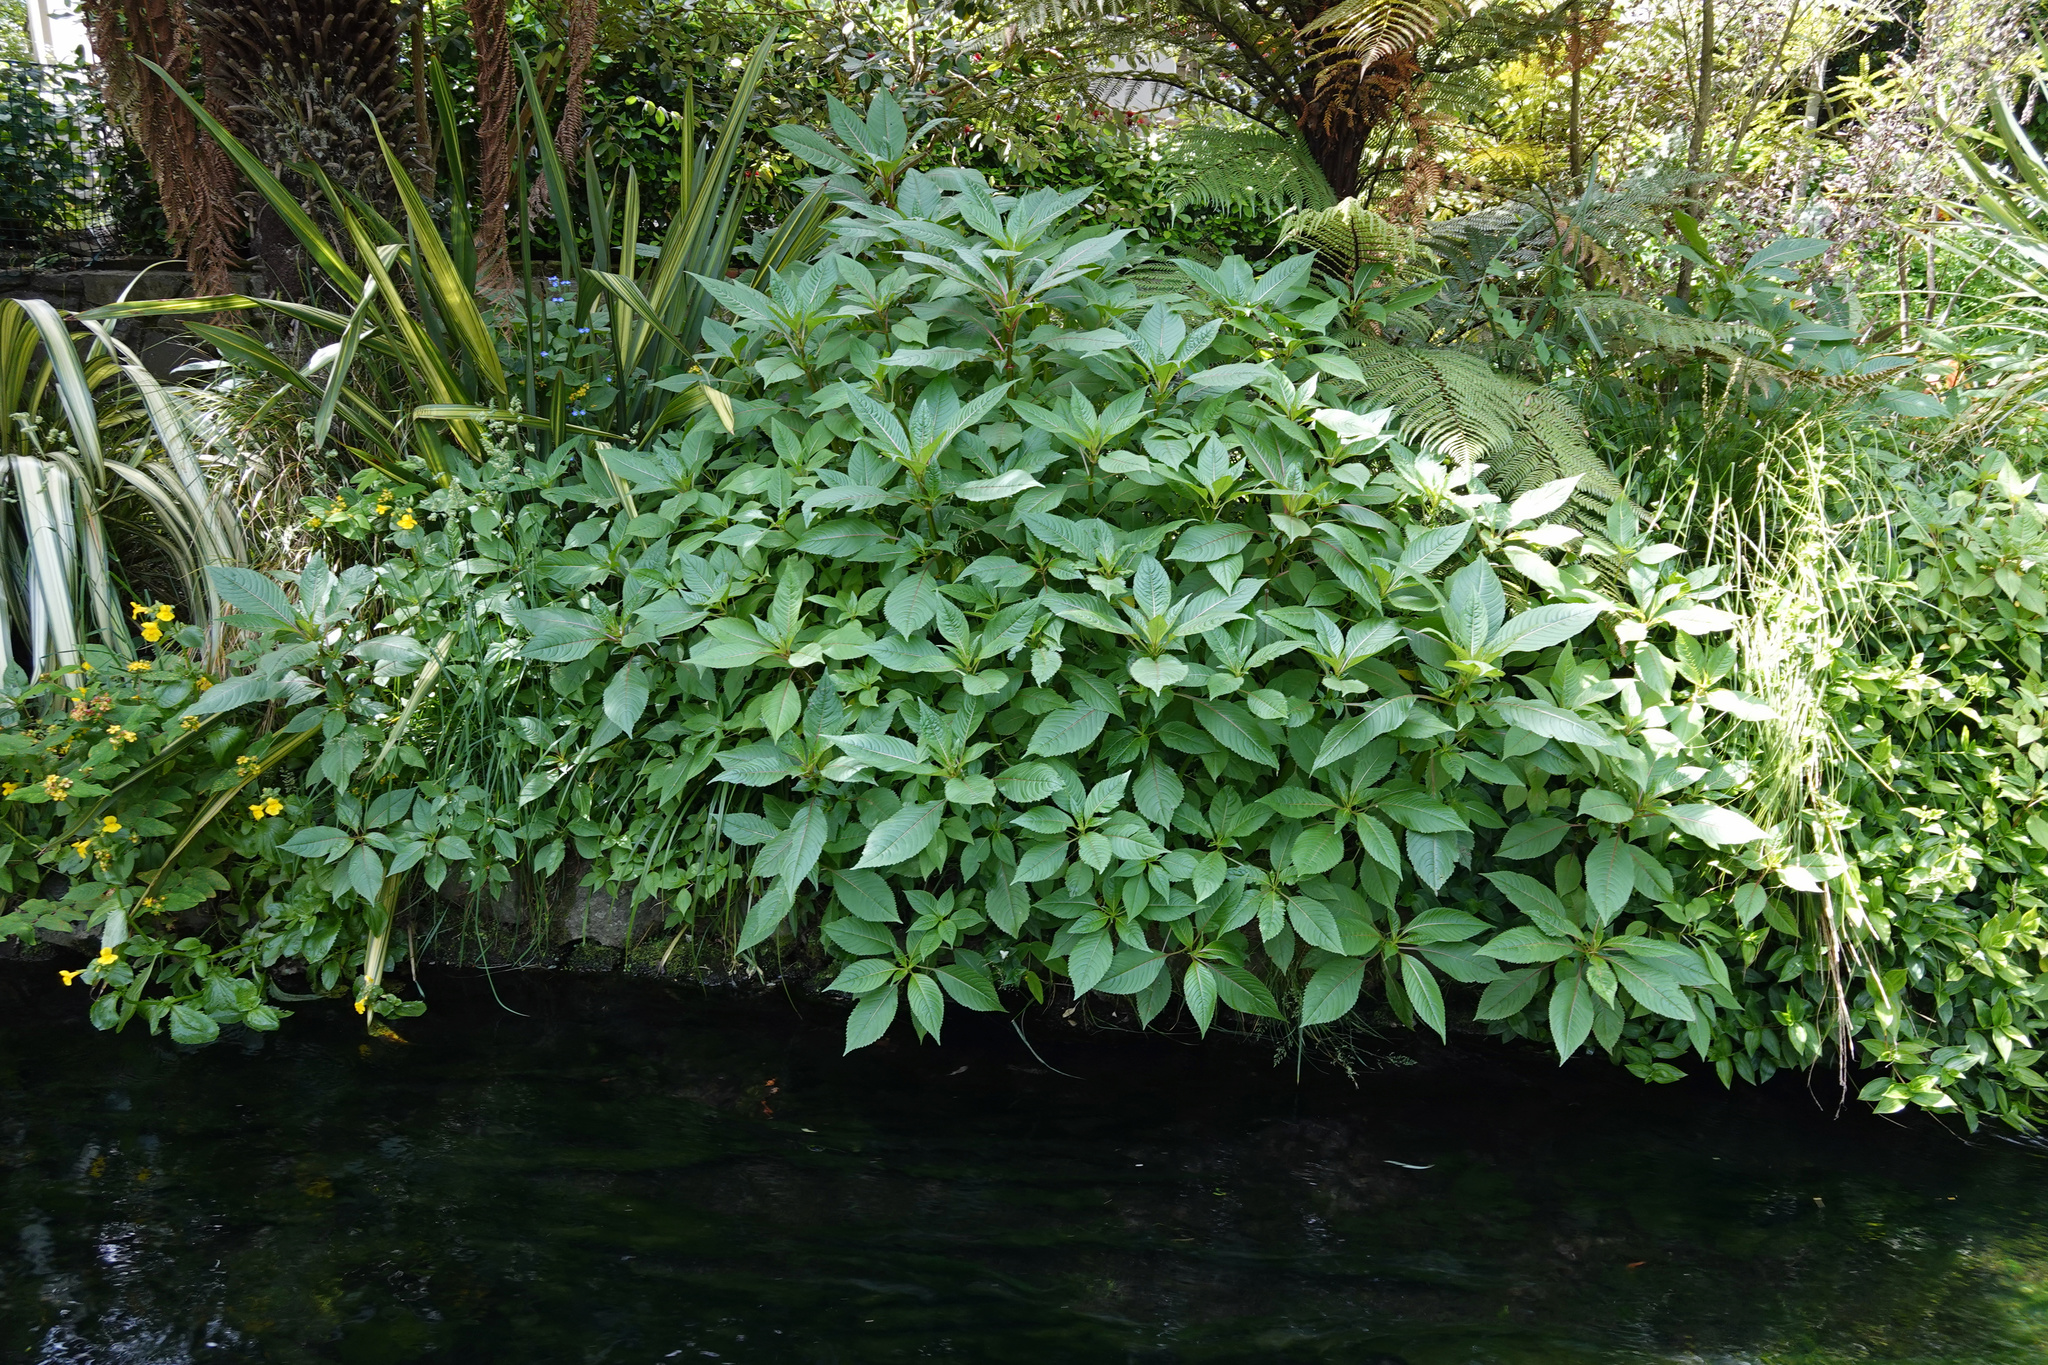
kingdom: Plantae
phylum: Tracheophyta
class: Magnoliopsida
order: Ericales
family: Balsaminaceae
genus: Impatiens
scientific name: Impatiens glandulifera
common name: Himalayan balsam
